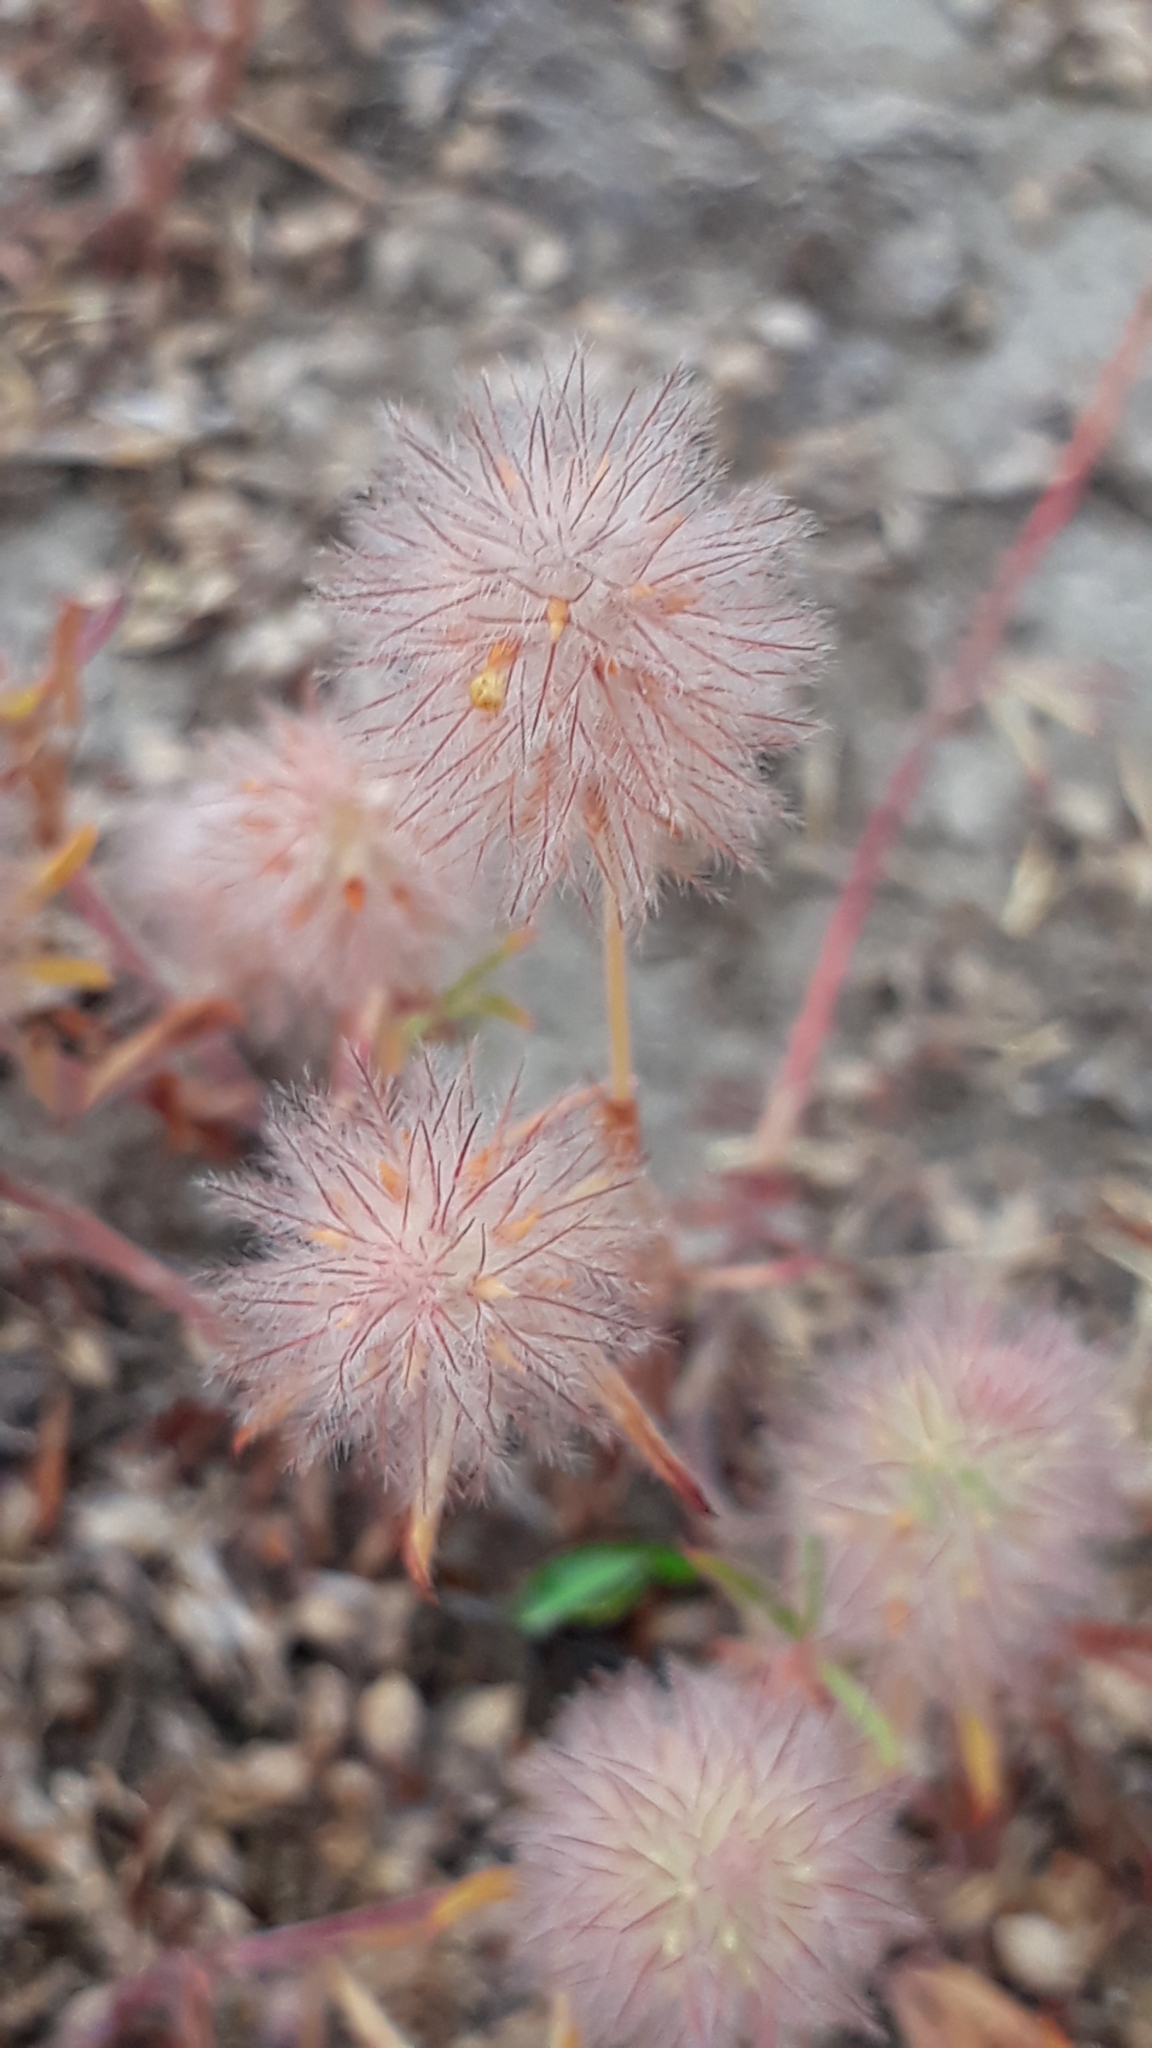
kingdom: Plantae
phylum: Tracheophyta
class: Magnoliopsida
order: Fabales
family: Fabaceae
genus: Trifolium
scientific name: Trifolium arvense
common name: Hare's-foot clover
